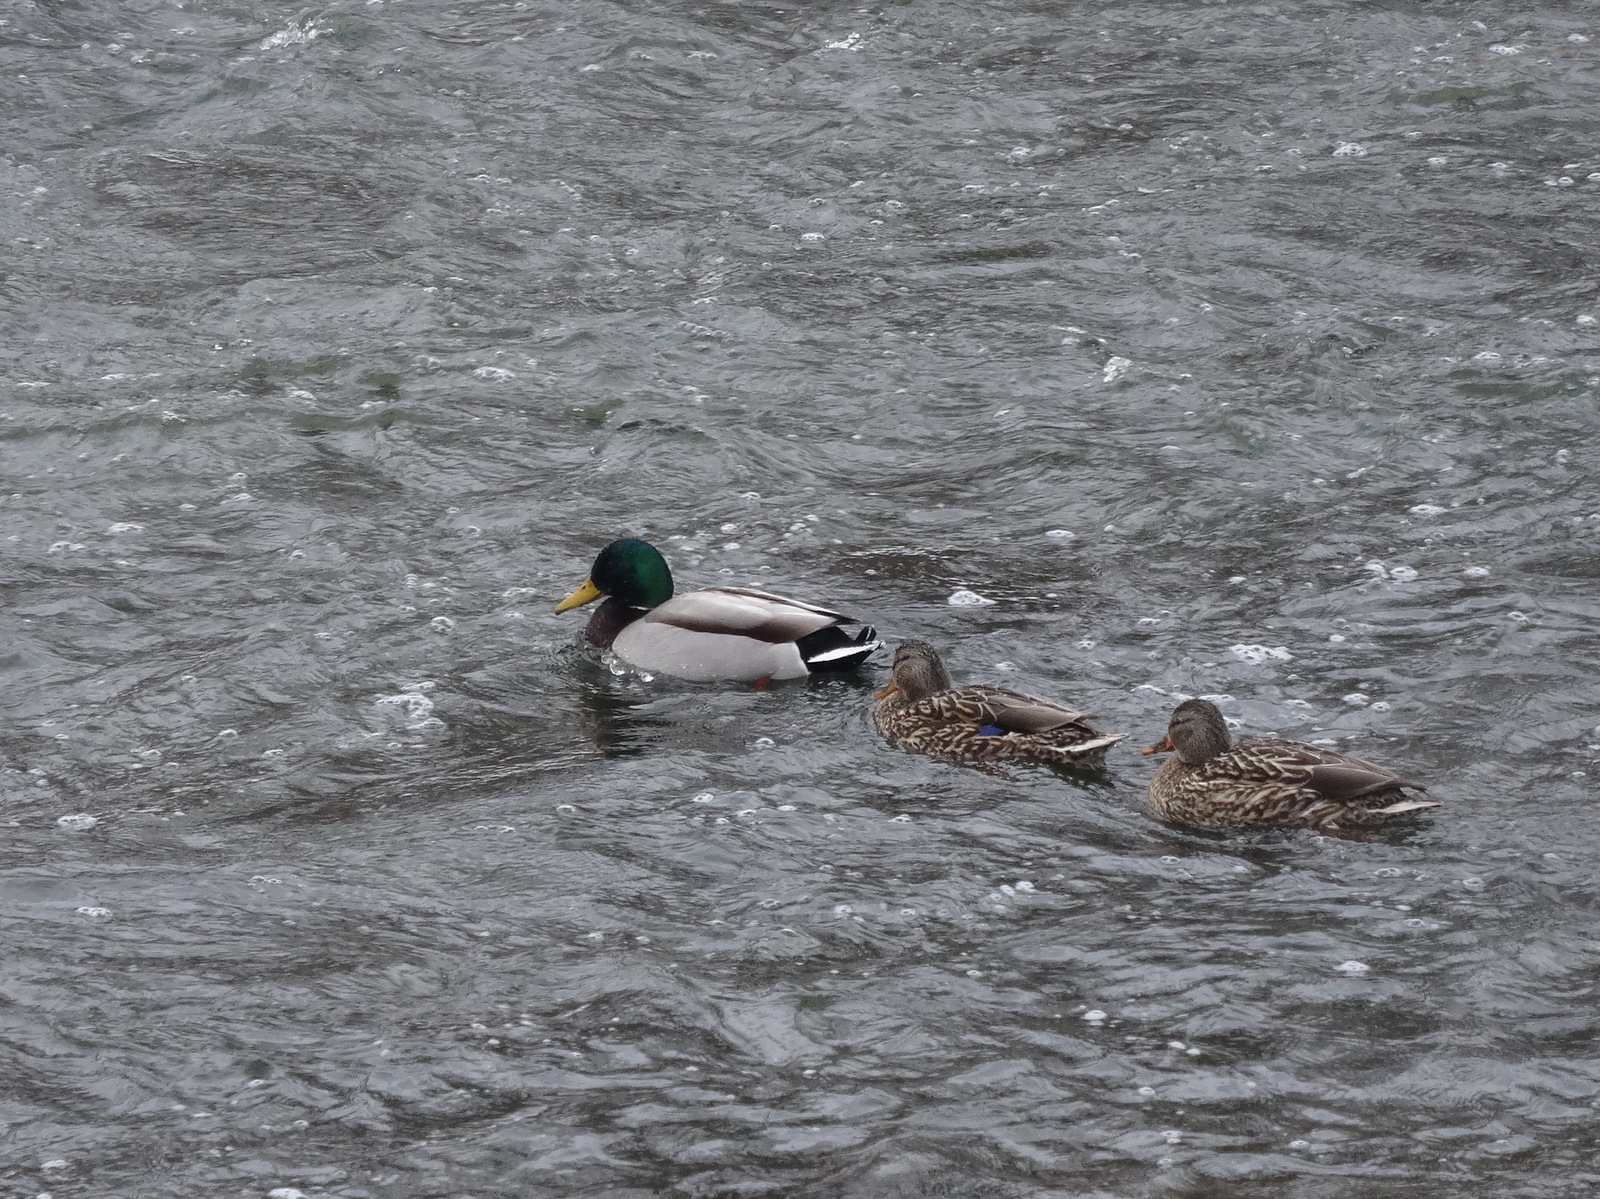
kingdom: Animalia
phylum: Chordata
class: Aves
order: Anseriformes
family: Anatidae
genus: Anas
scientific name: Anas platyrhynchos
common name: Mallard
